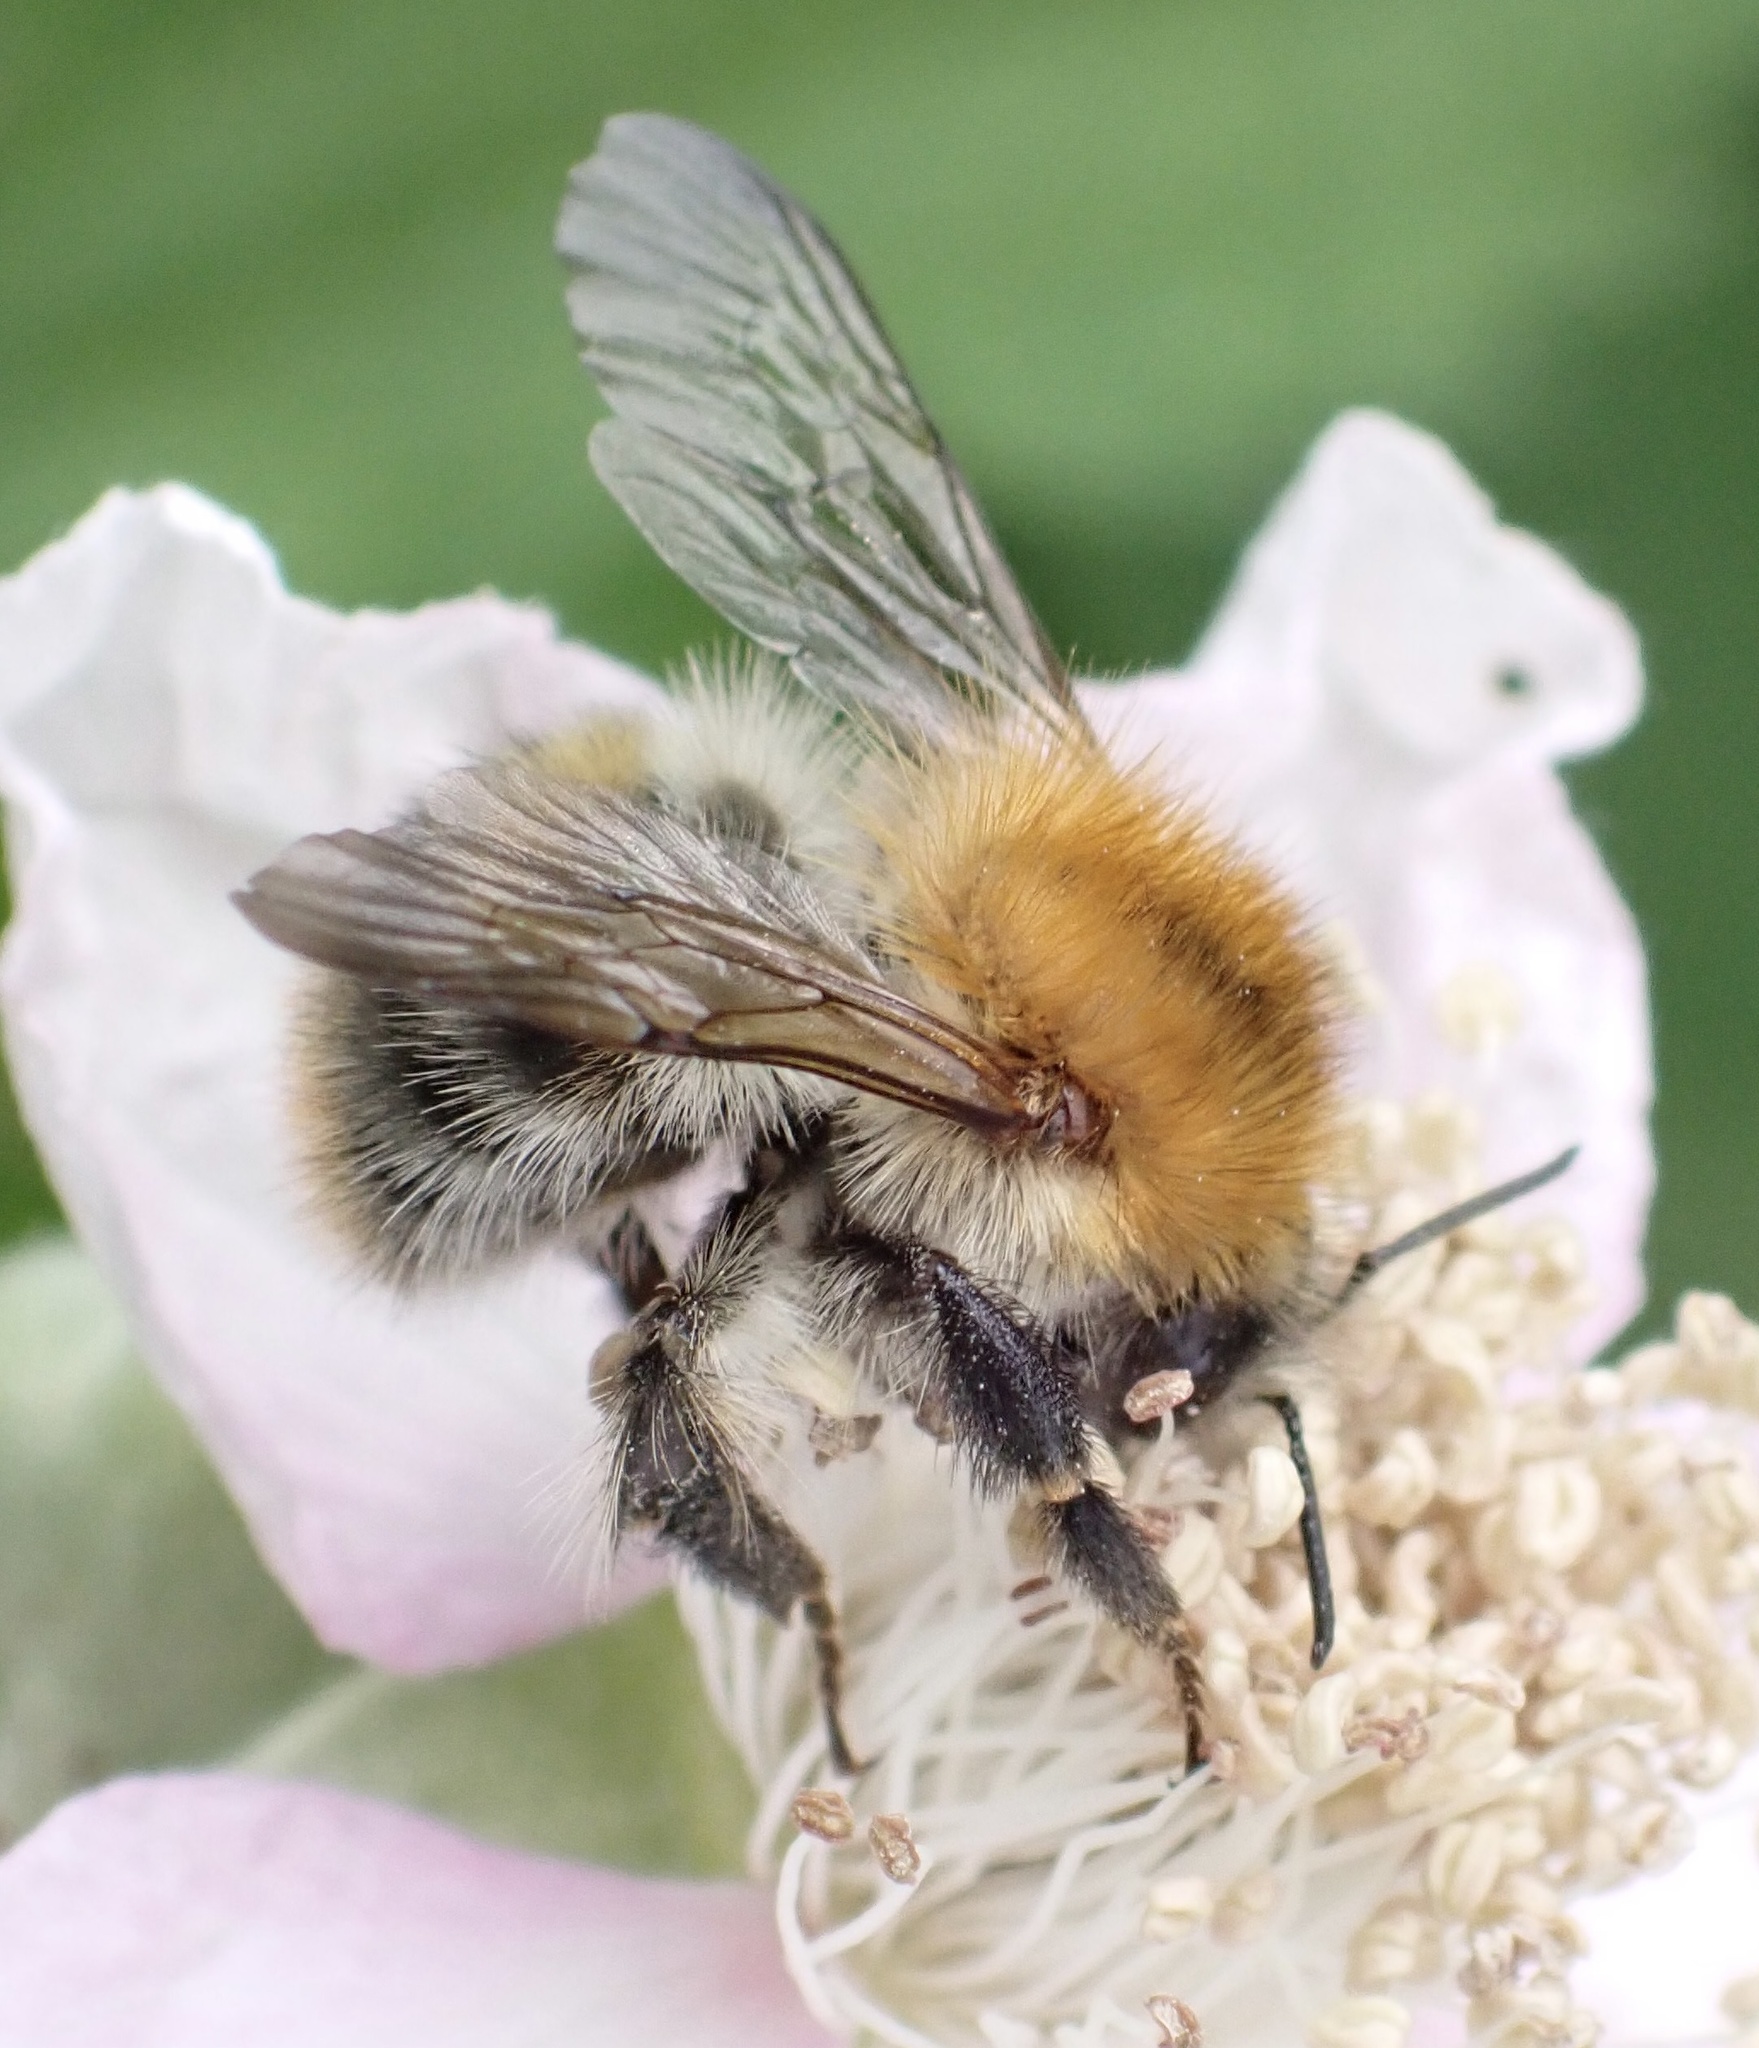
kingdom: Animalia
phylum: Arthropoda
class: Insecta
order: Hymenoptera
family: Apidae
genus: Bombus
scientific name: Bombus pascuorum
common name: Common carder bee
